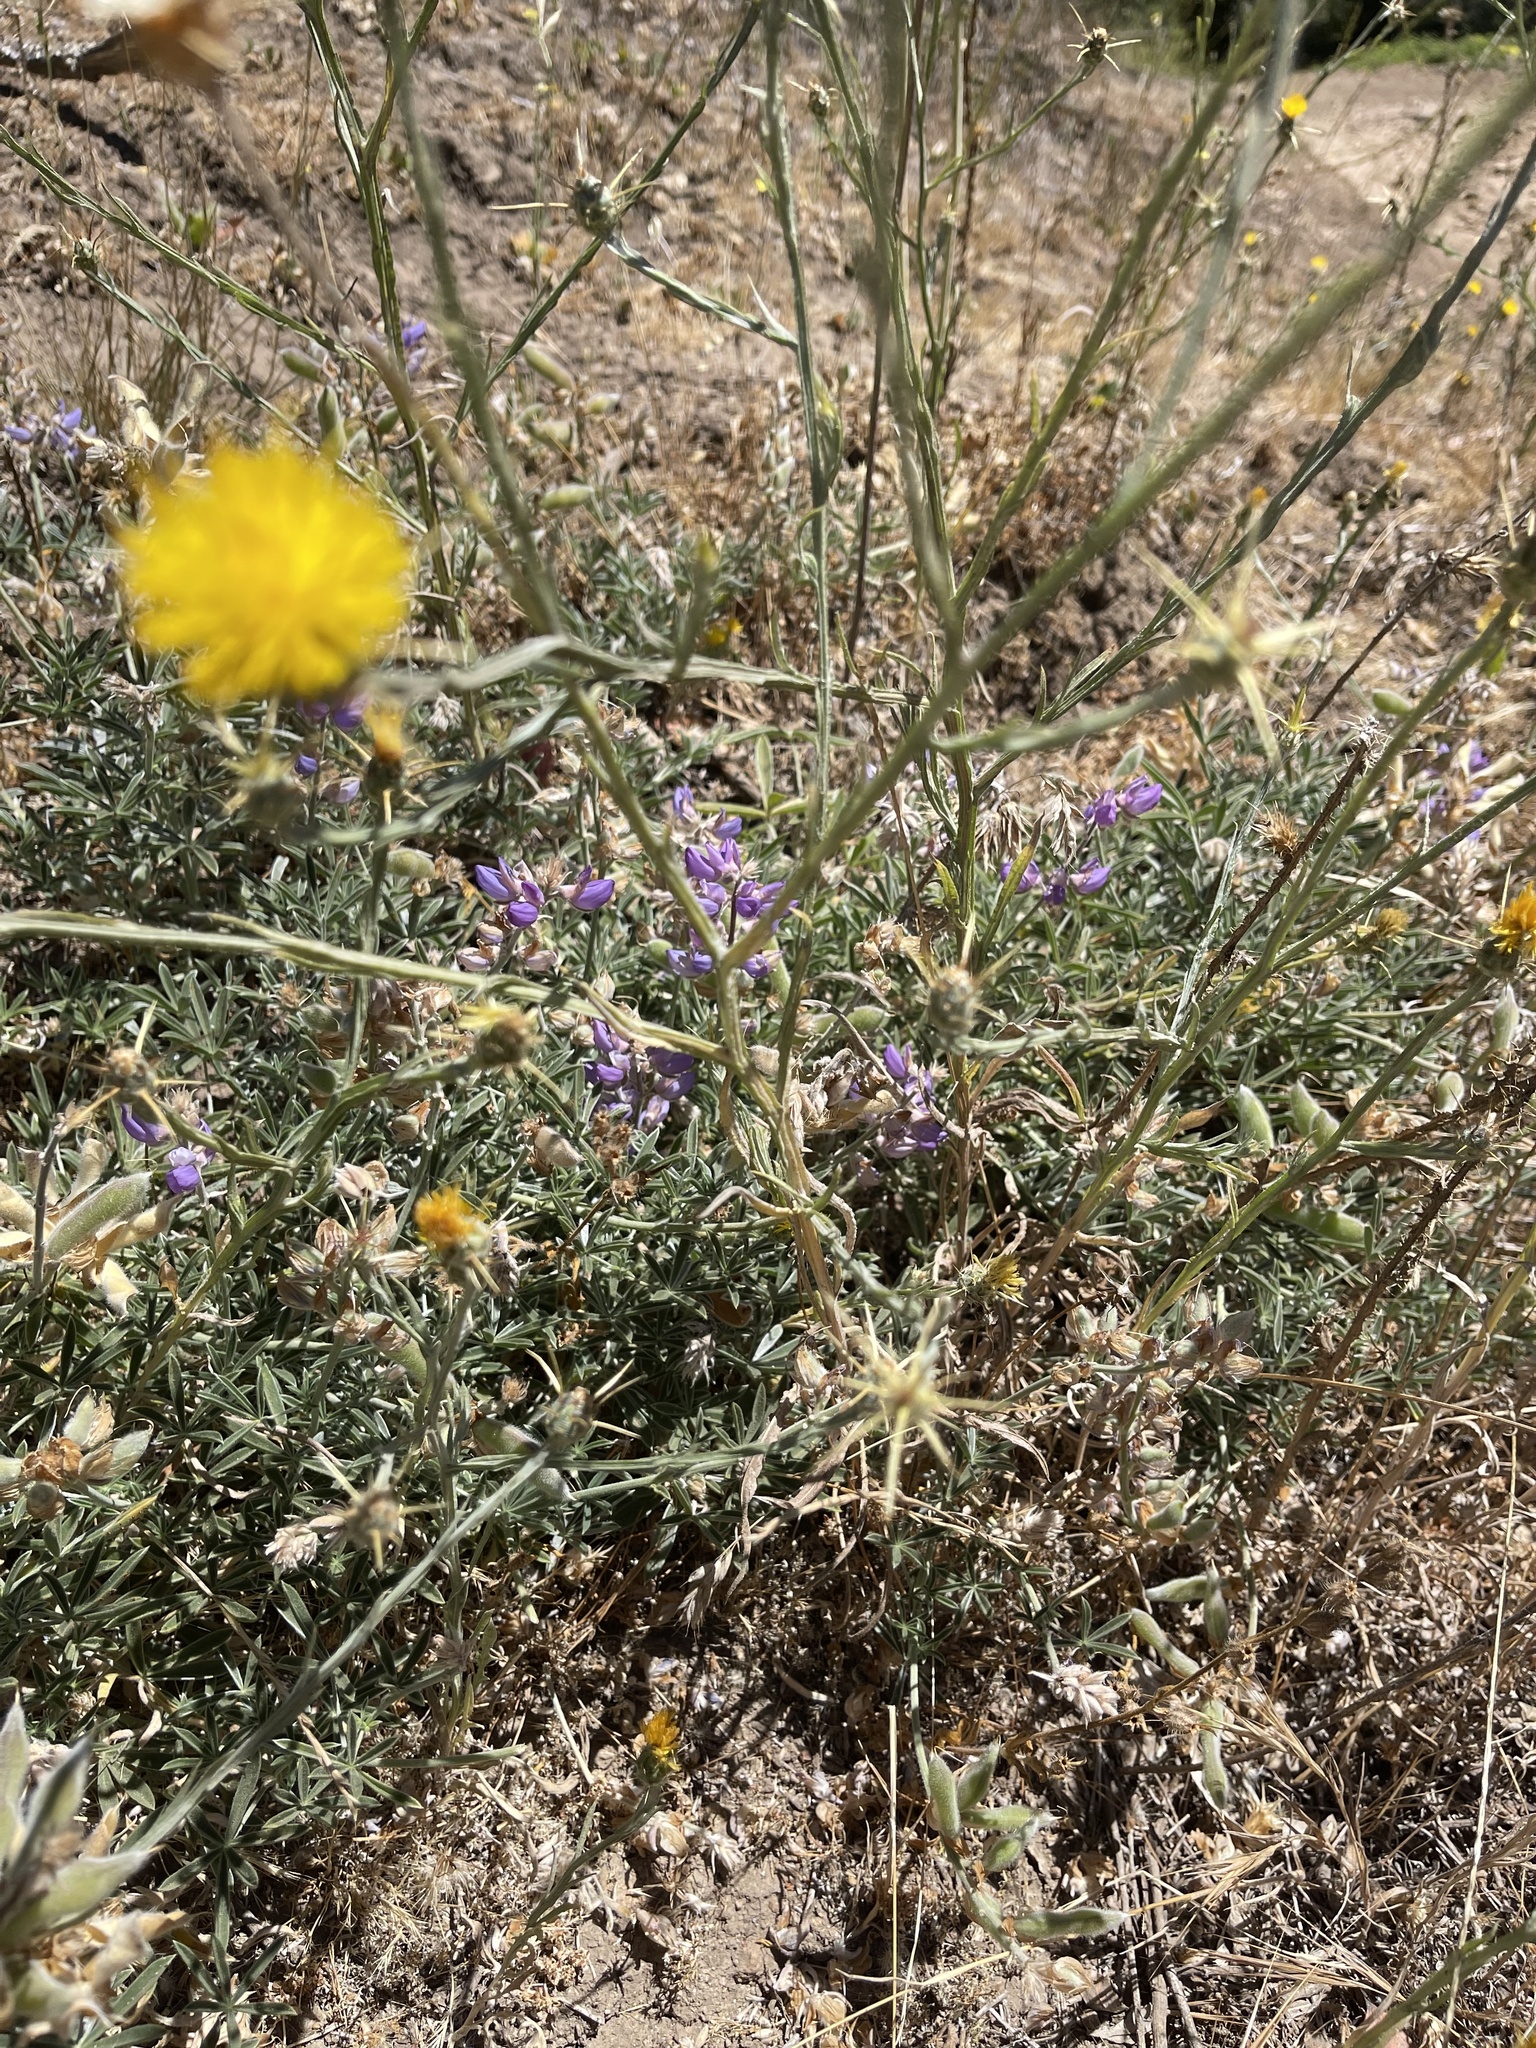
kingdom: Plantae
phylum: Tracheophyta
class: Magnoliopsida
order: Asterales
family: Asteraceae
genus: Centaurea
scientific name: Centaurea solstitialis
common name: Yellow star-thistle
